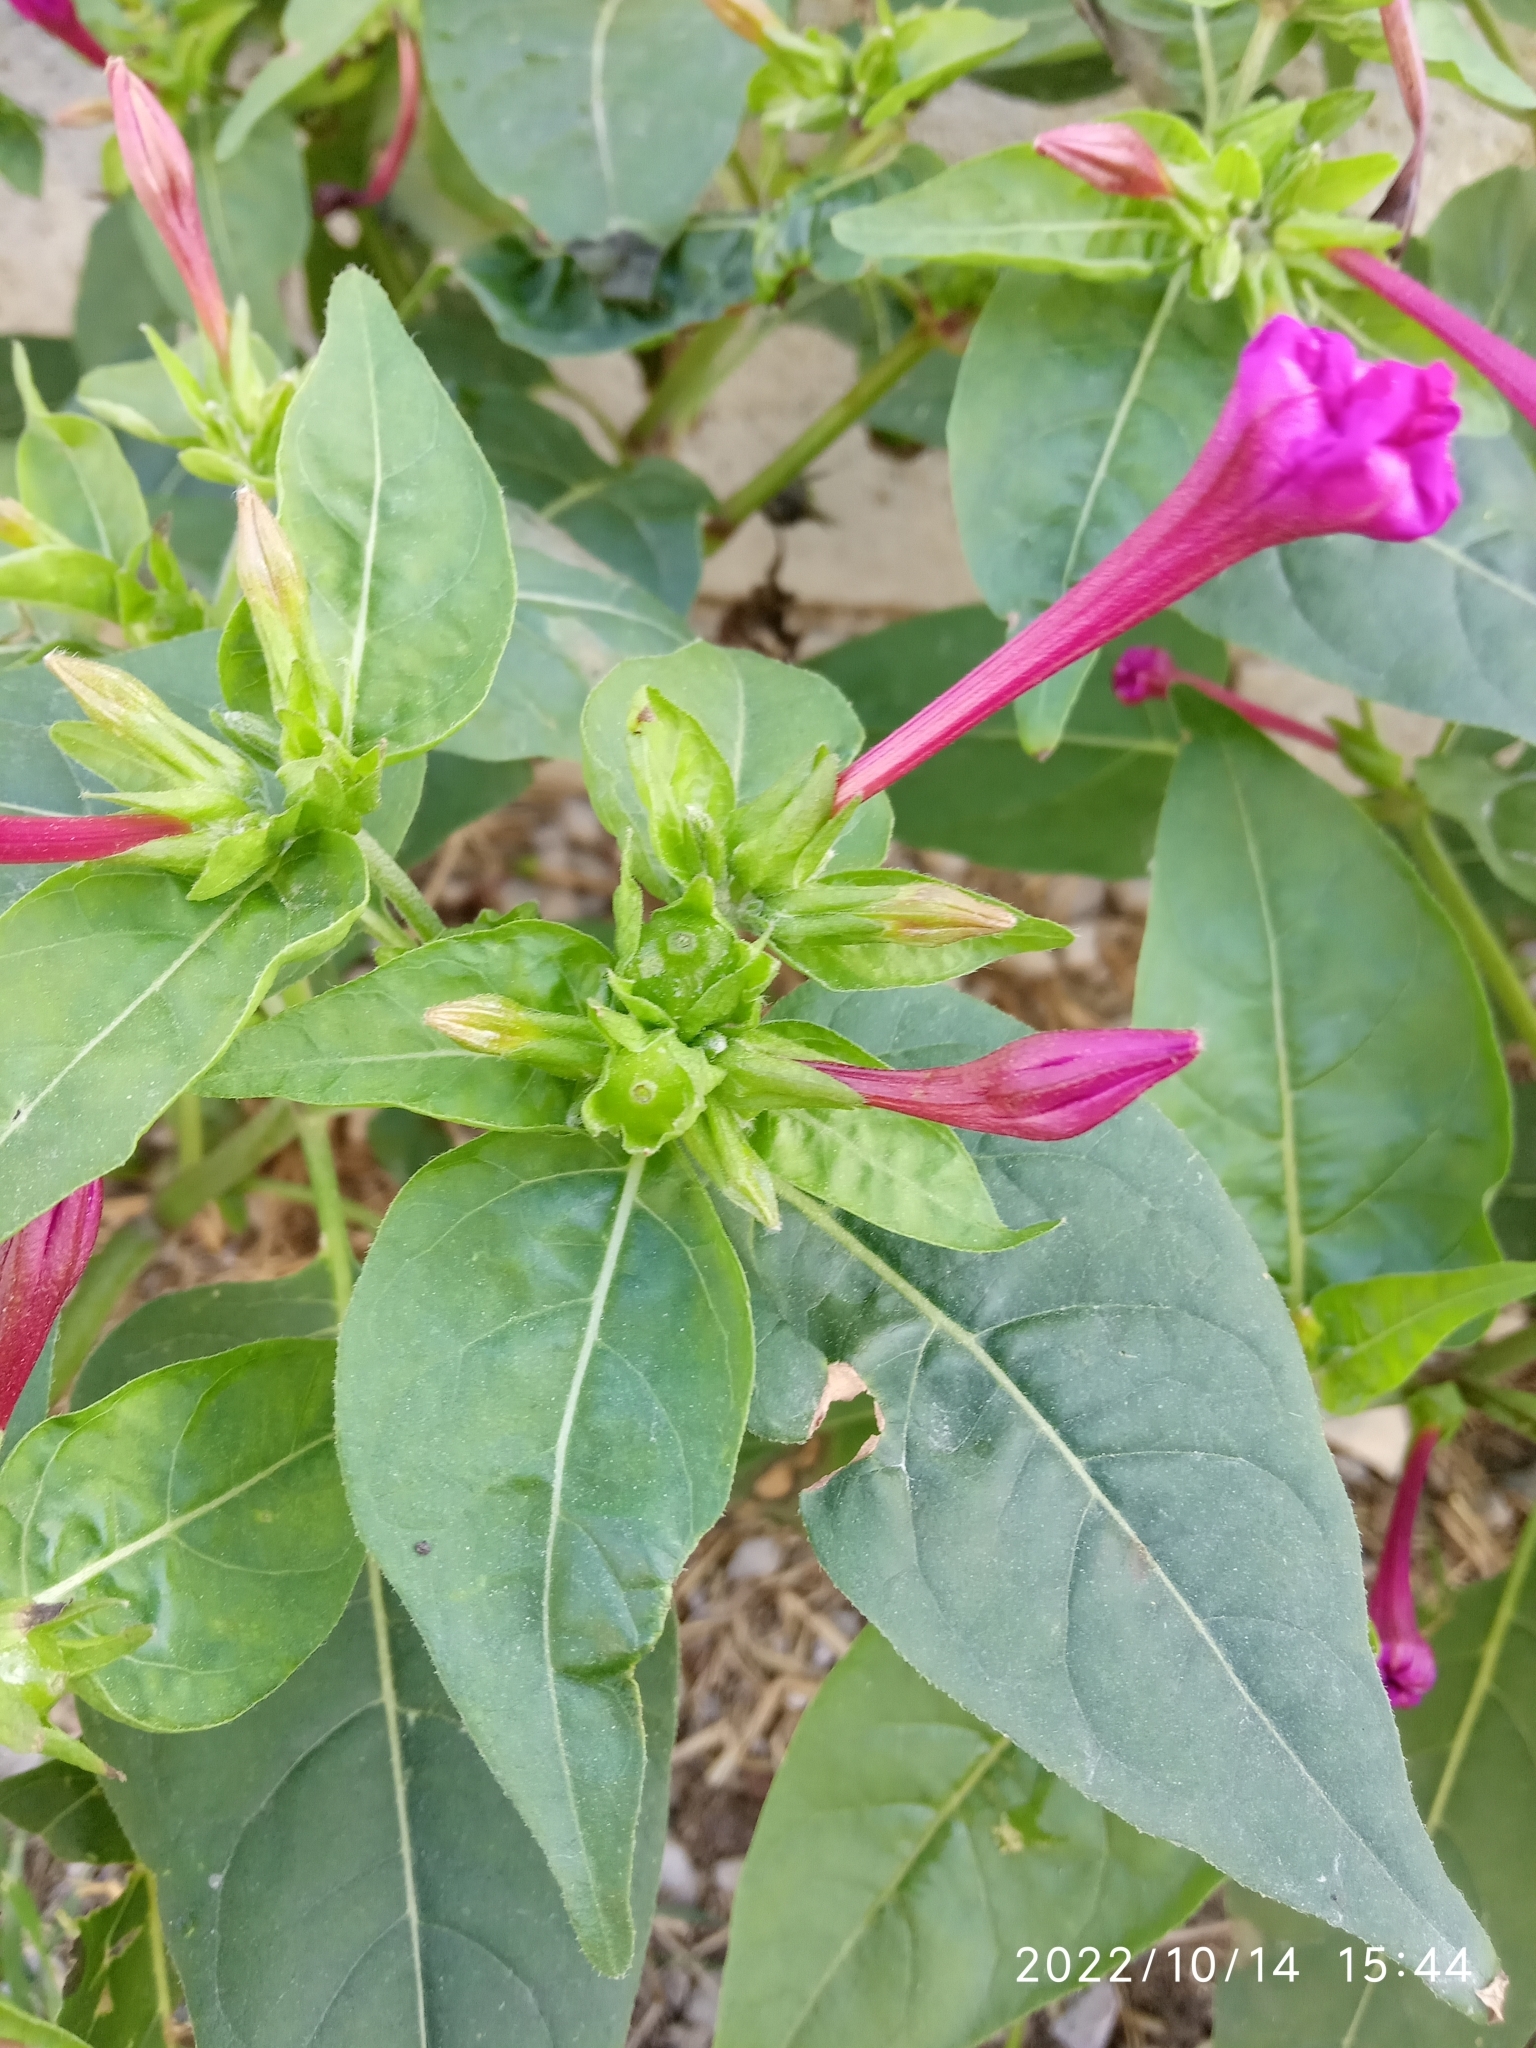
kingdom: Plantae
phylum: Tracheophyta
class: Magnoliopsida
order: Caryophyllales
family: Nyctaginaceae
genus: Mirabilis
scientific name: Mirabilis jalapa
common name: Marvel-of-peru
